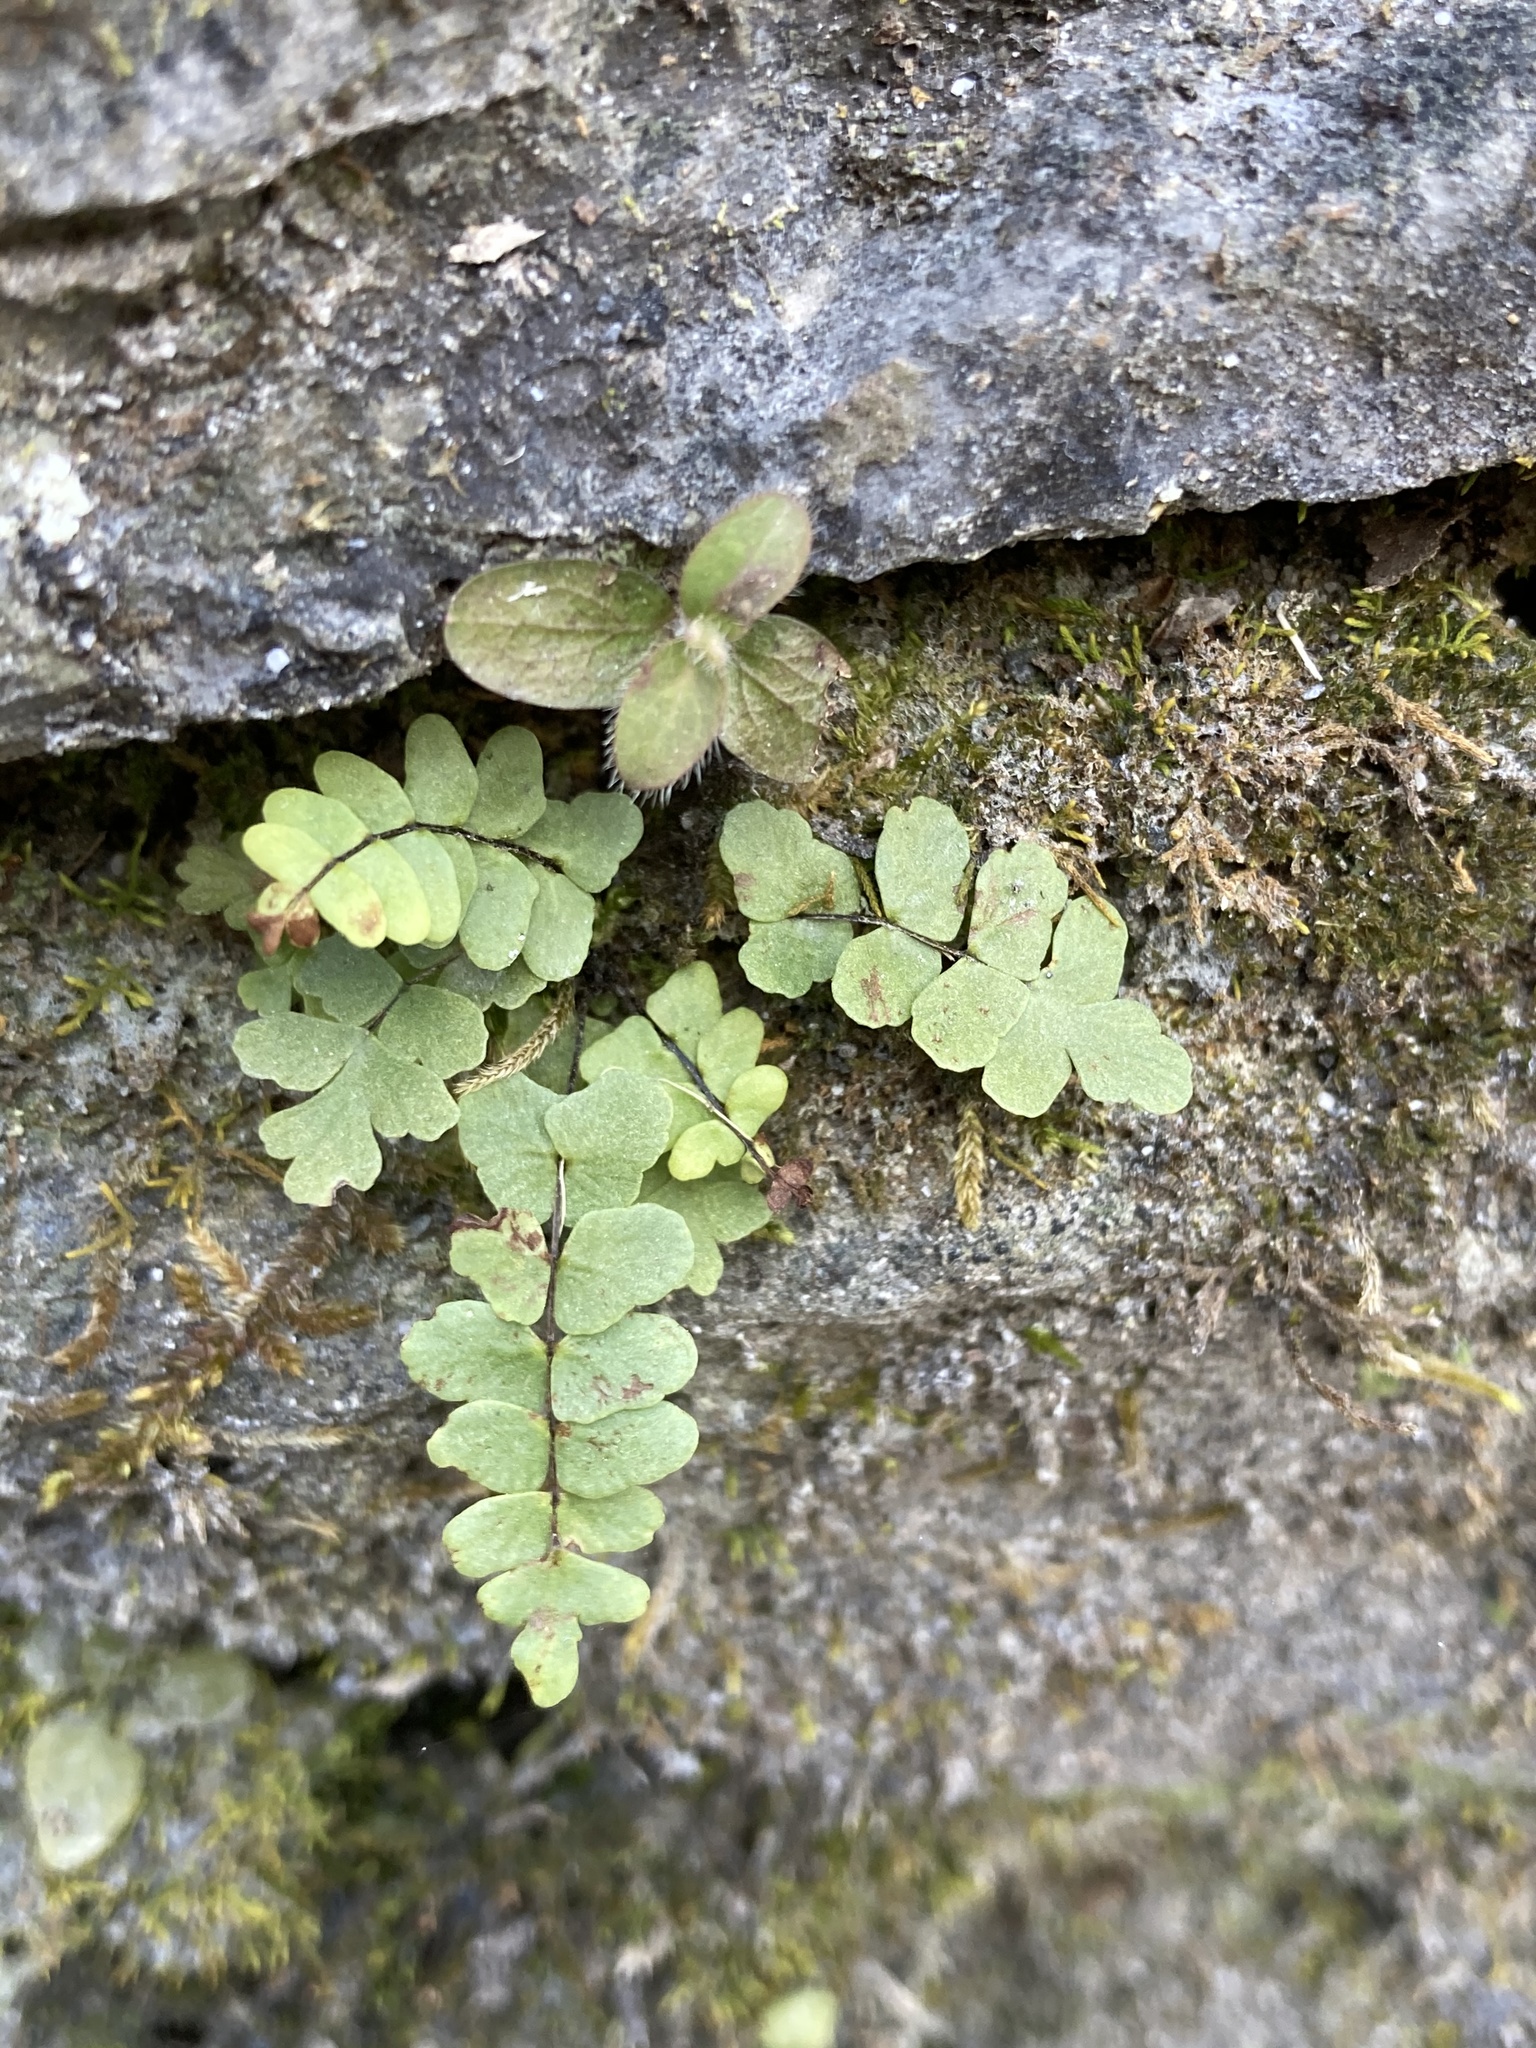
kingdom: Plantae
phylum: Tracheophyta
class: Polypodiopsida
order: Polypodiales
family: Aspleniaceae
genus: Asplenium
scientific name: Asplenium resiliens
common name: Blackstem spleenwort
